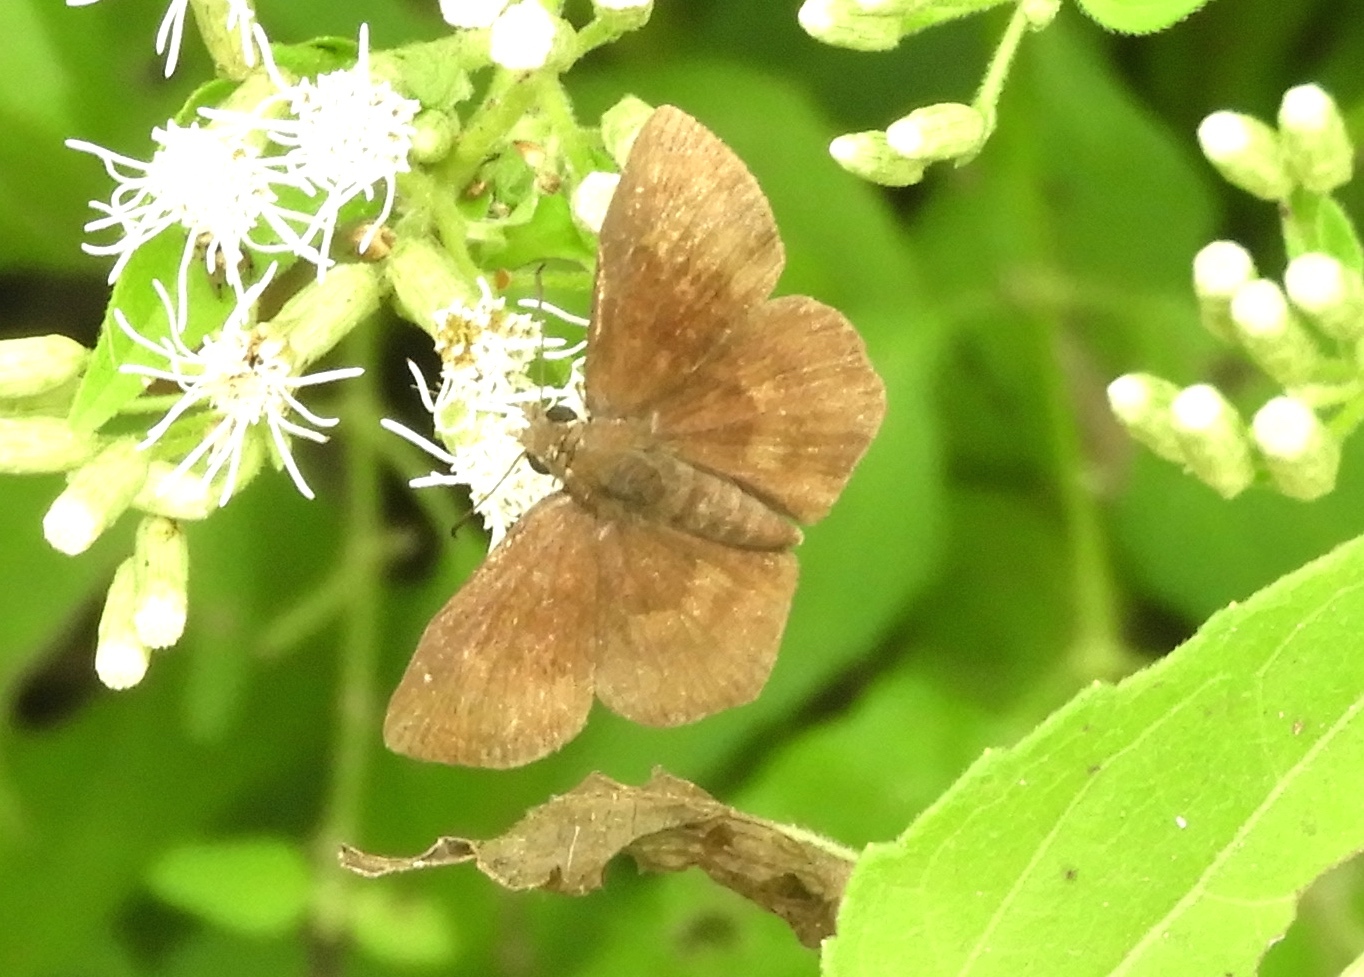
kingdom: Animalia
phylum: Arthropoda
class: Insecta
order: Lepidoptera
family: Hesperiidae
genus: Pyrginae
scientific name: Pyrginae
